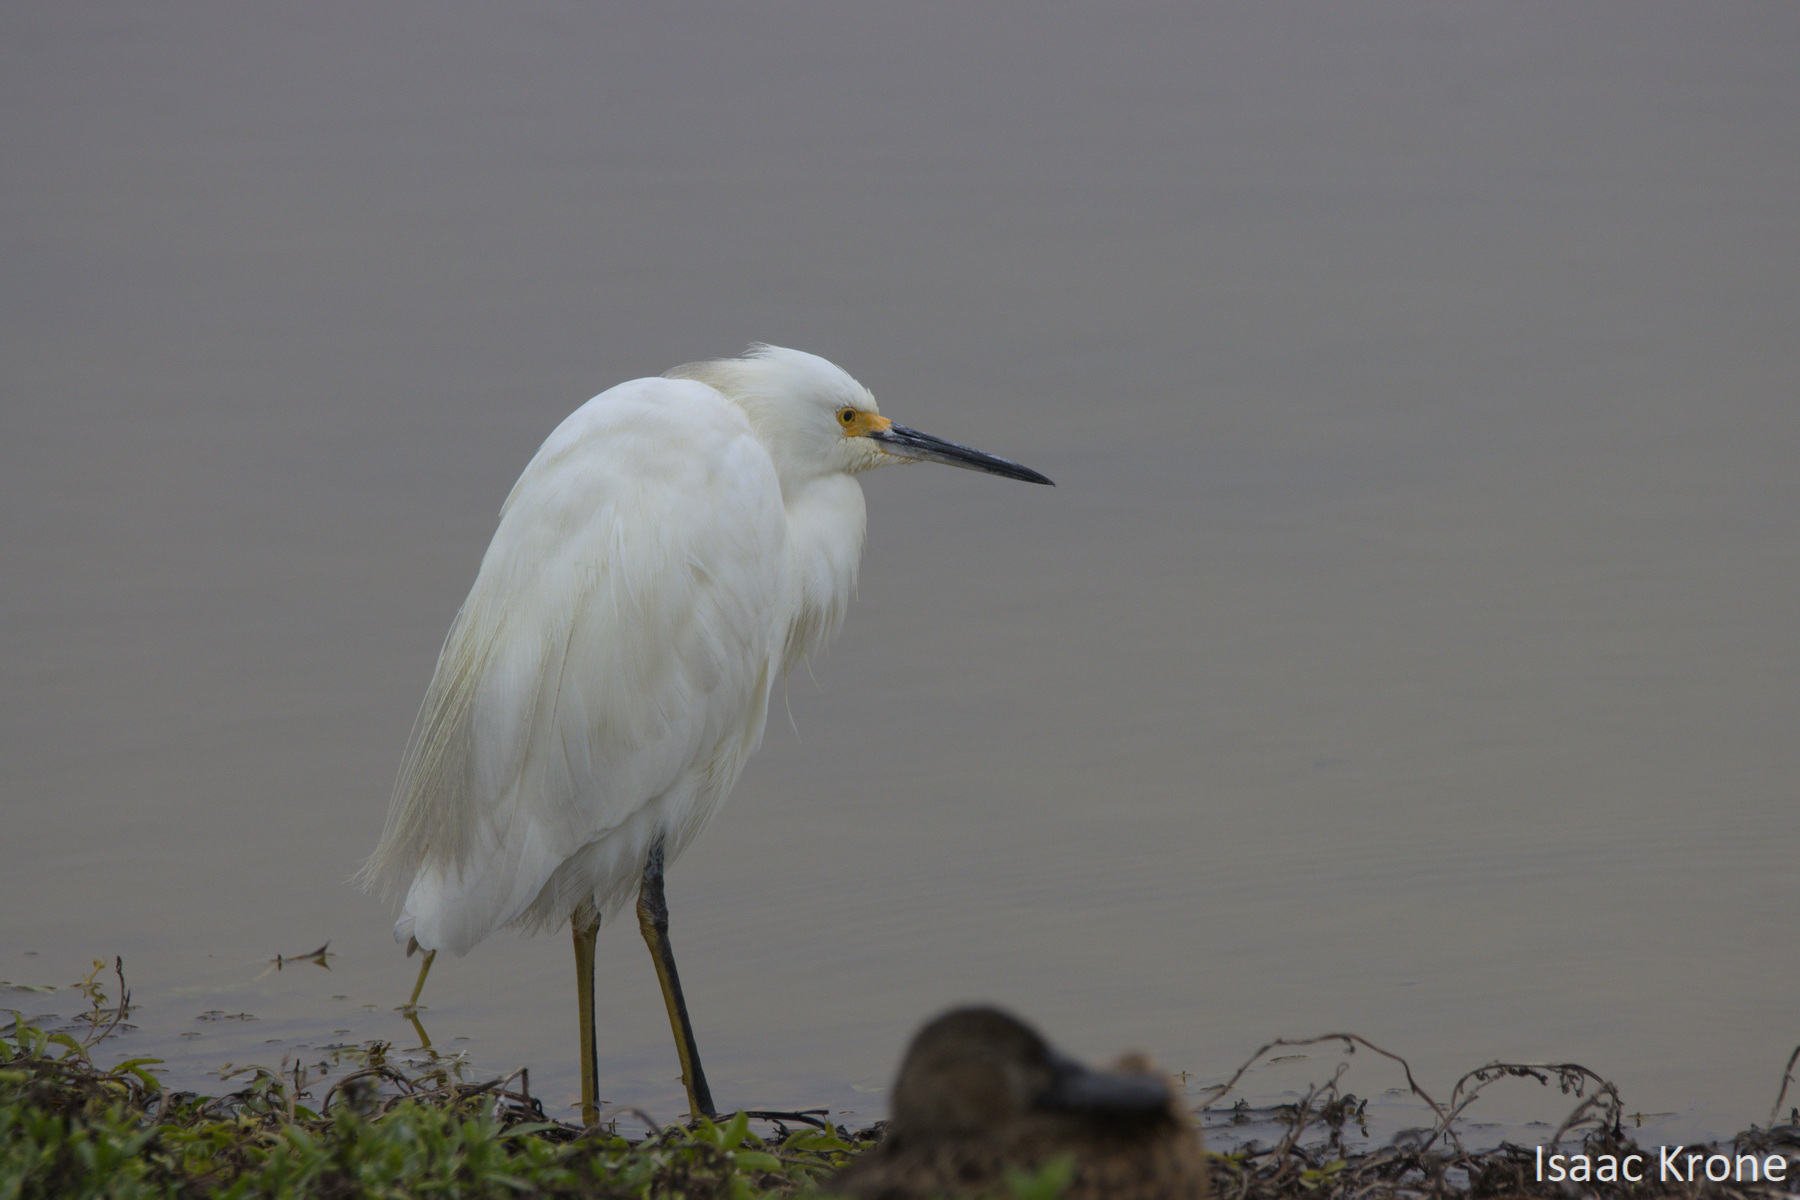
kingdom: Animalia
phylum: Chordata
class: Aves
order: Pelecaniformes
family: Ardeidae
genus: Egretta
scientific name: Egretta thula
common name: Snowy egret
